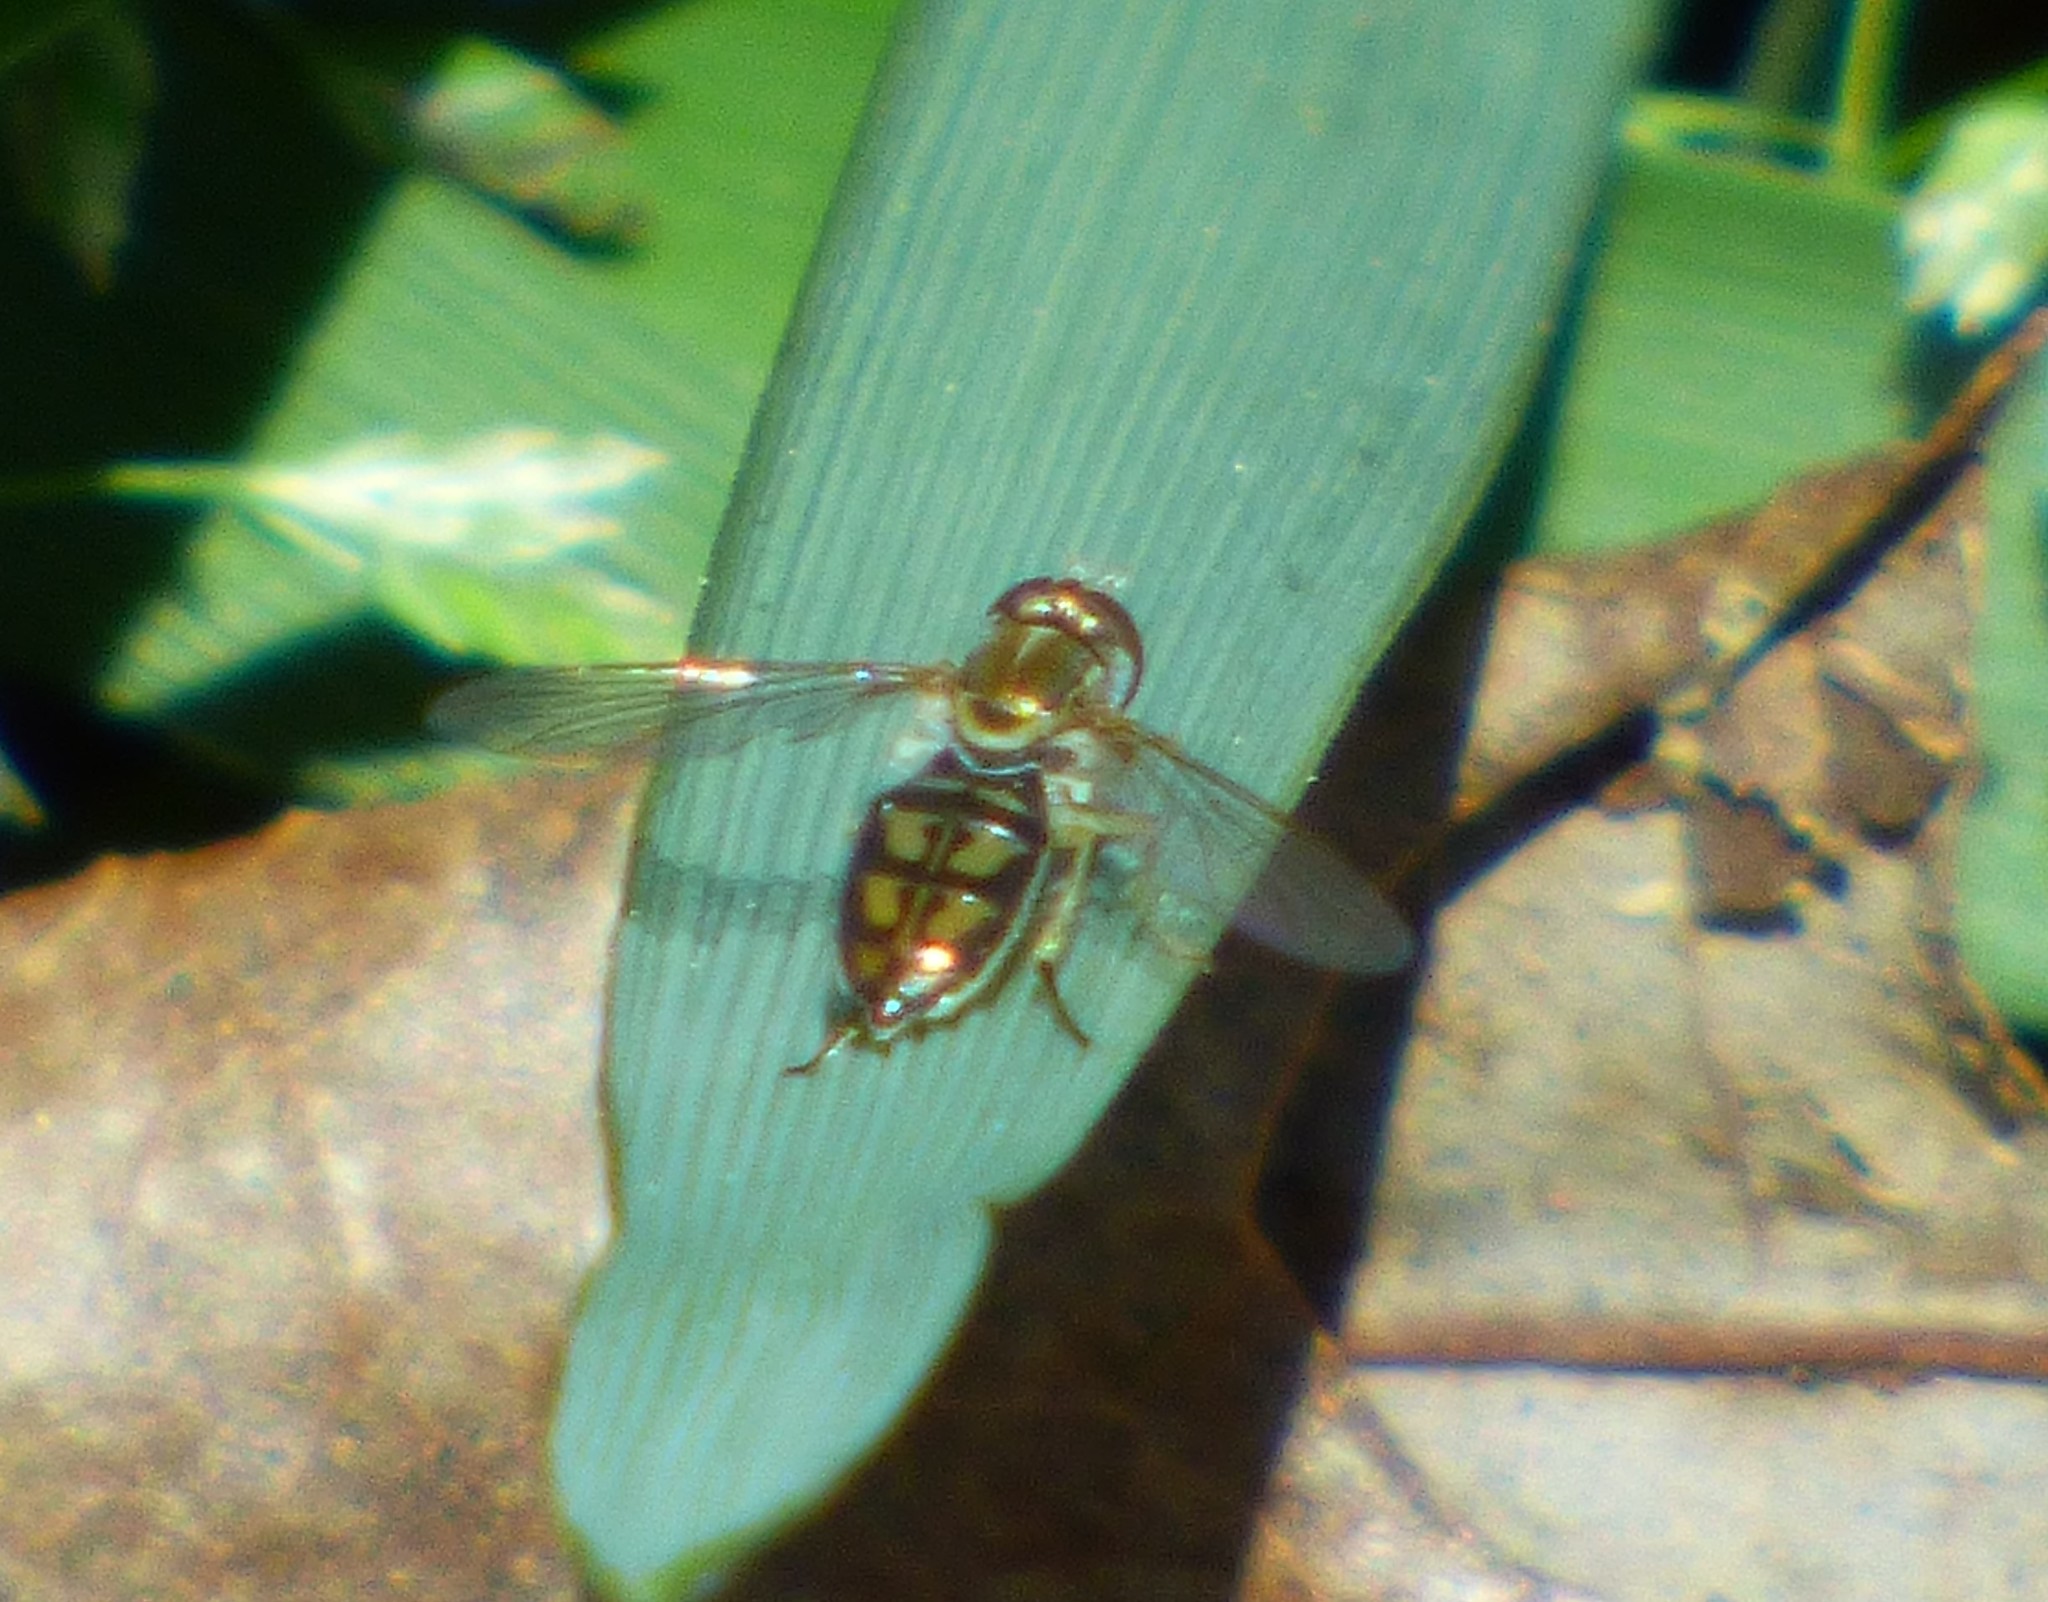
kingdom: Animalia
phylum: Arthropoda
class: Insecta
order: Diptera
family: Syrphidae
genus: Toxomerus
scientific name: Toxomerus marginatus
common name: Syrphid fly
